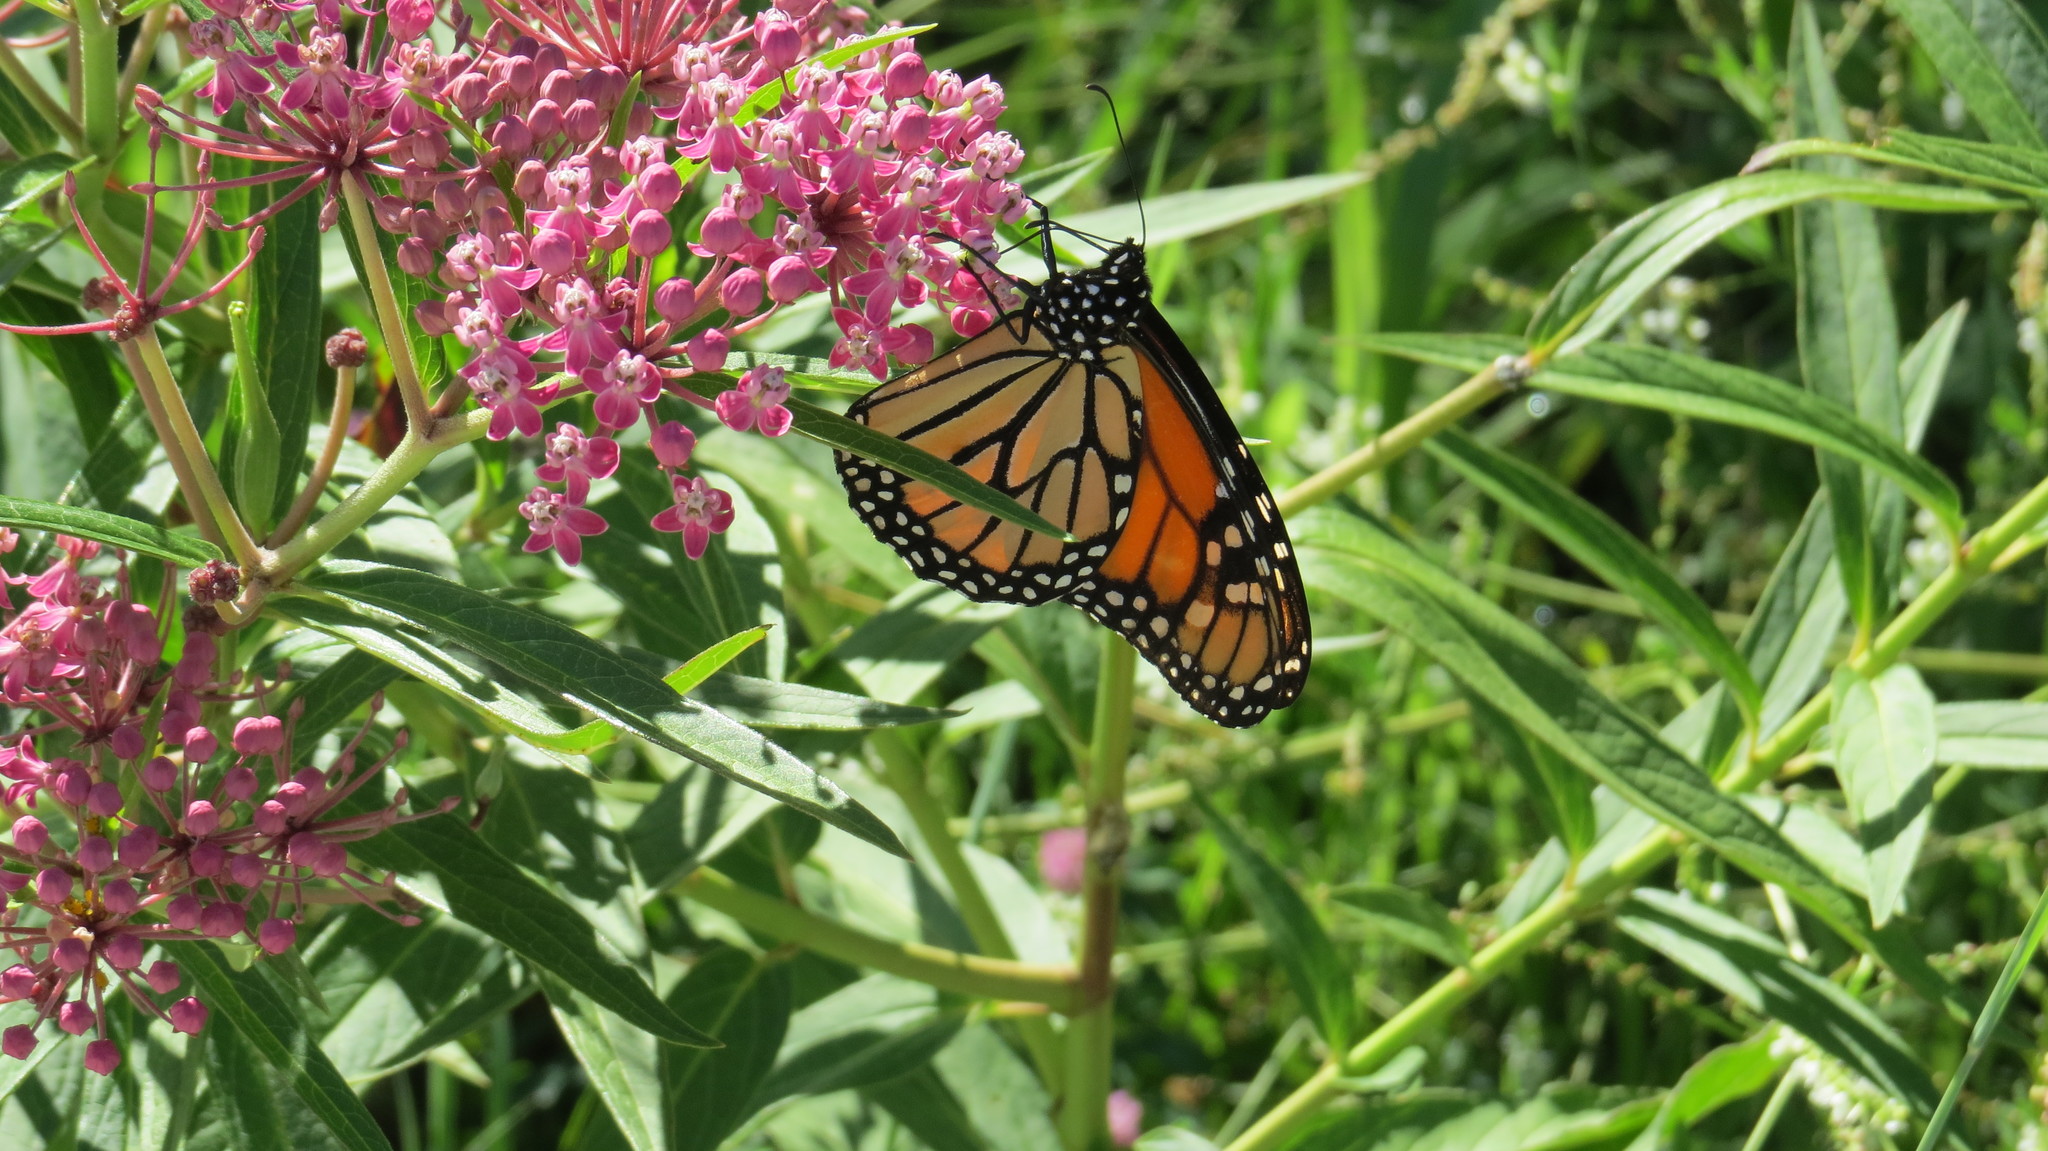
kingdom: Animalia
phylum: Arthropoda
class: Insecta
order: Lepidoptera
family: Nymphalidae
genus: Danaus
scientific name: Danaus plexippus
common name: Monarch
